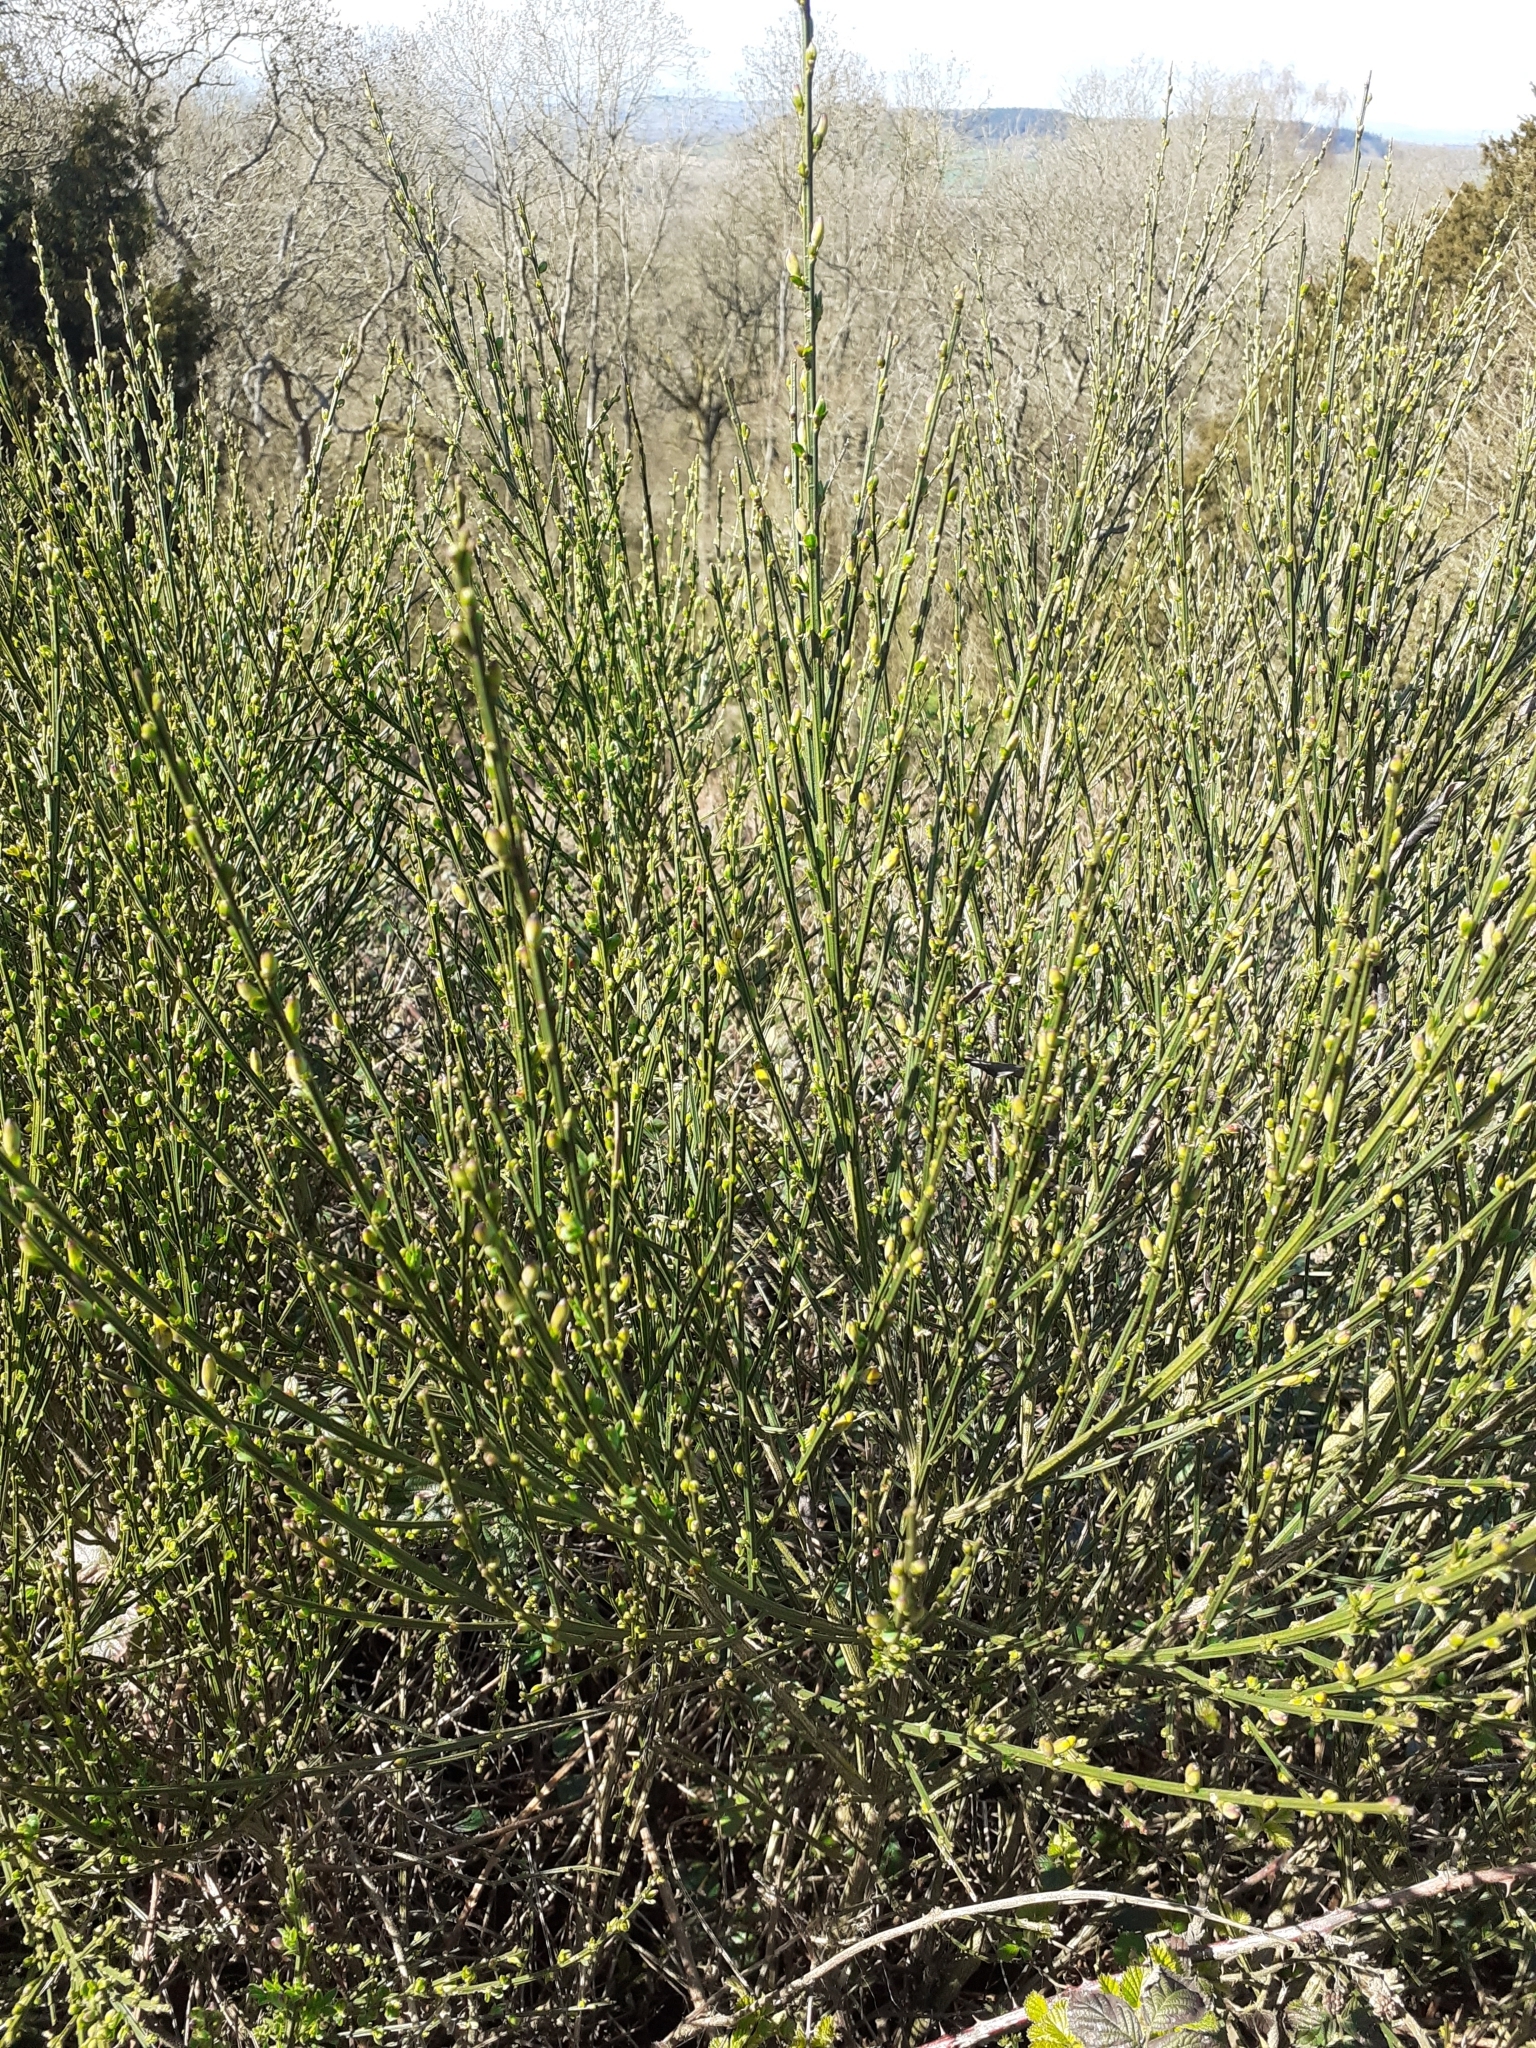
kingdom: Plantae
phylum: Tracheophyta
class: Magnoliopsida
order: Fabales
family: Fabaceae
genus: Cytisus
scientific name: Cytisus scoparius
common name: Scotch broom
